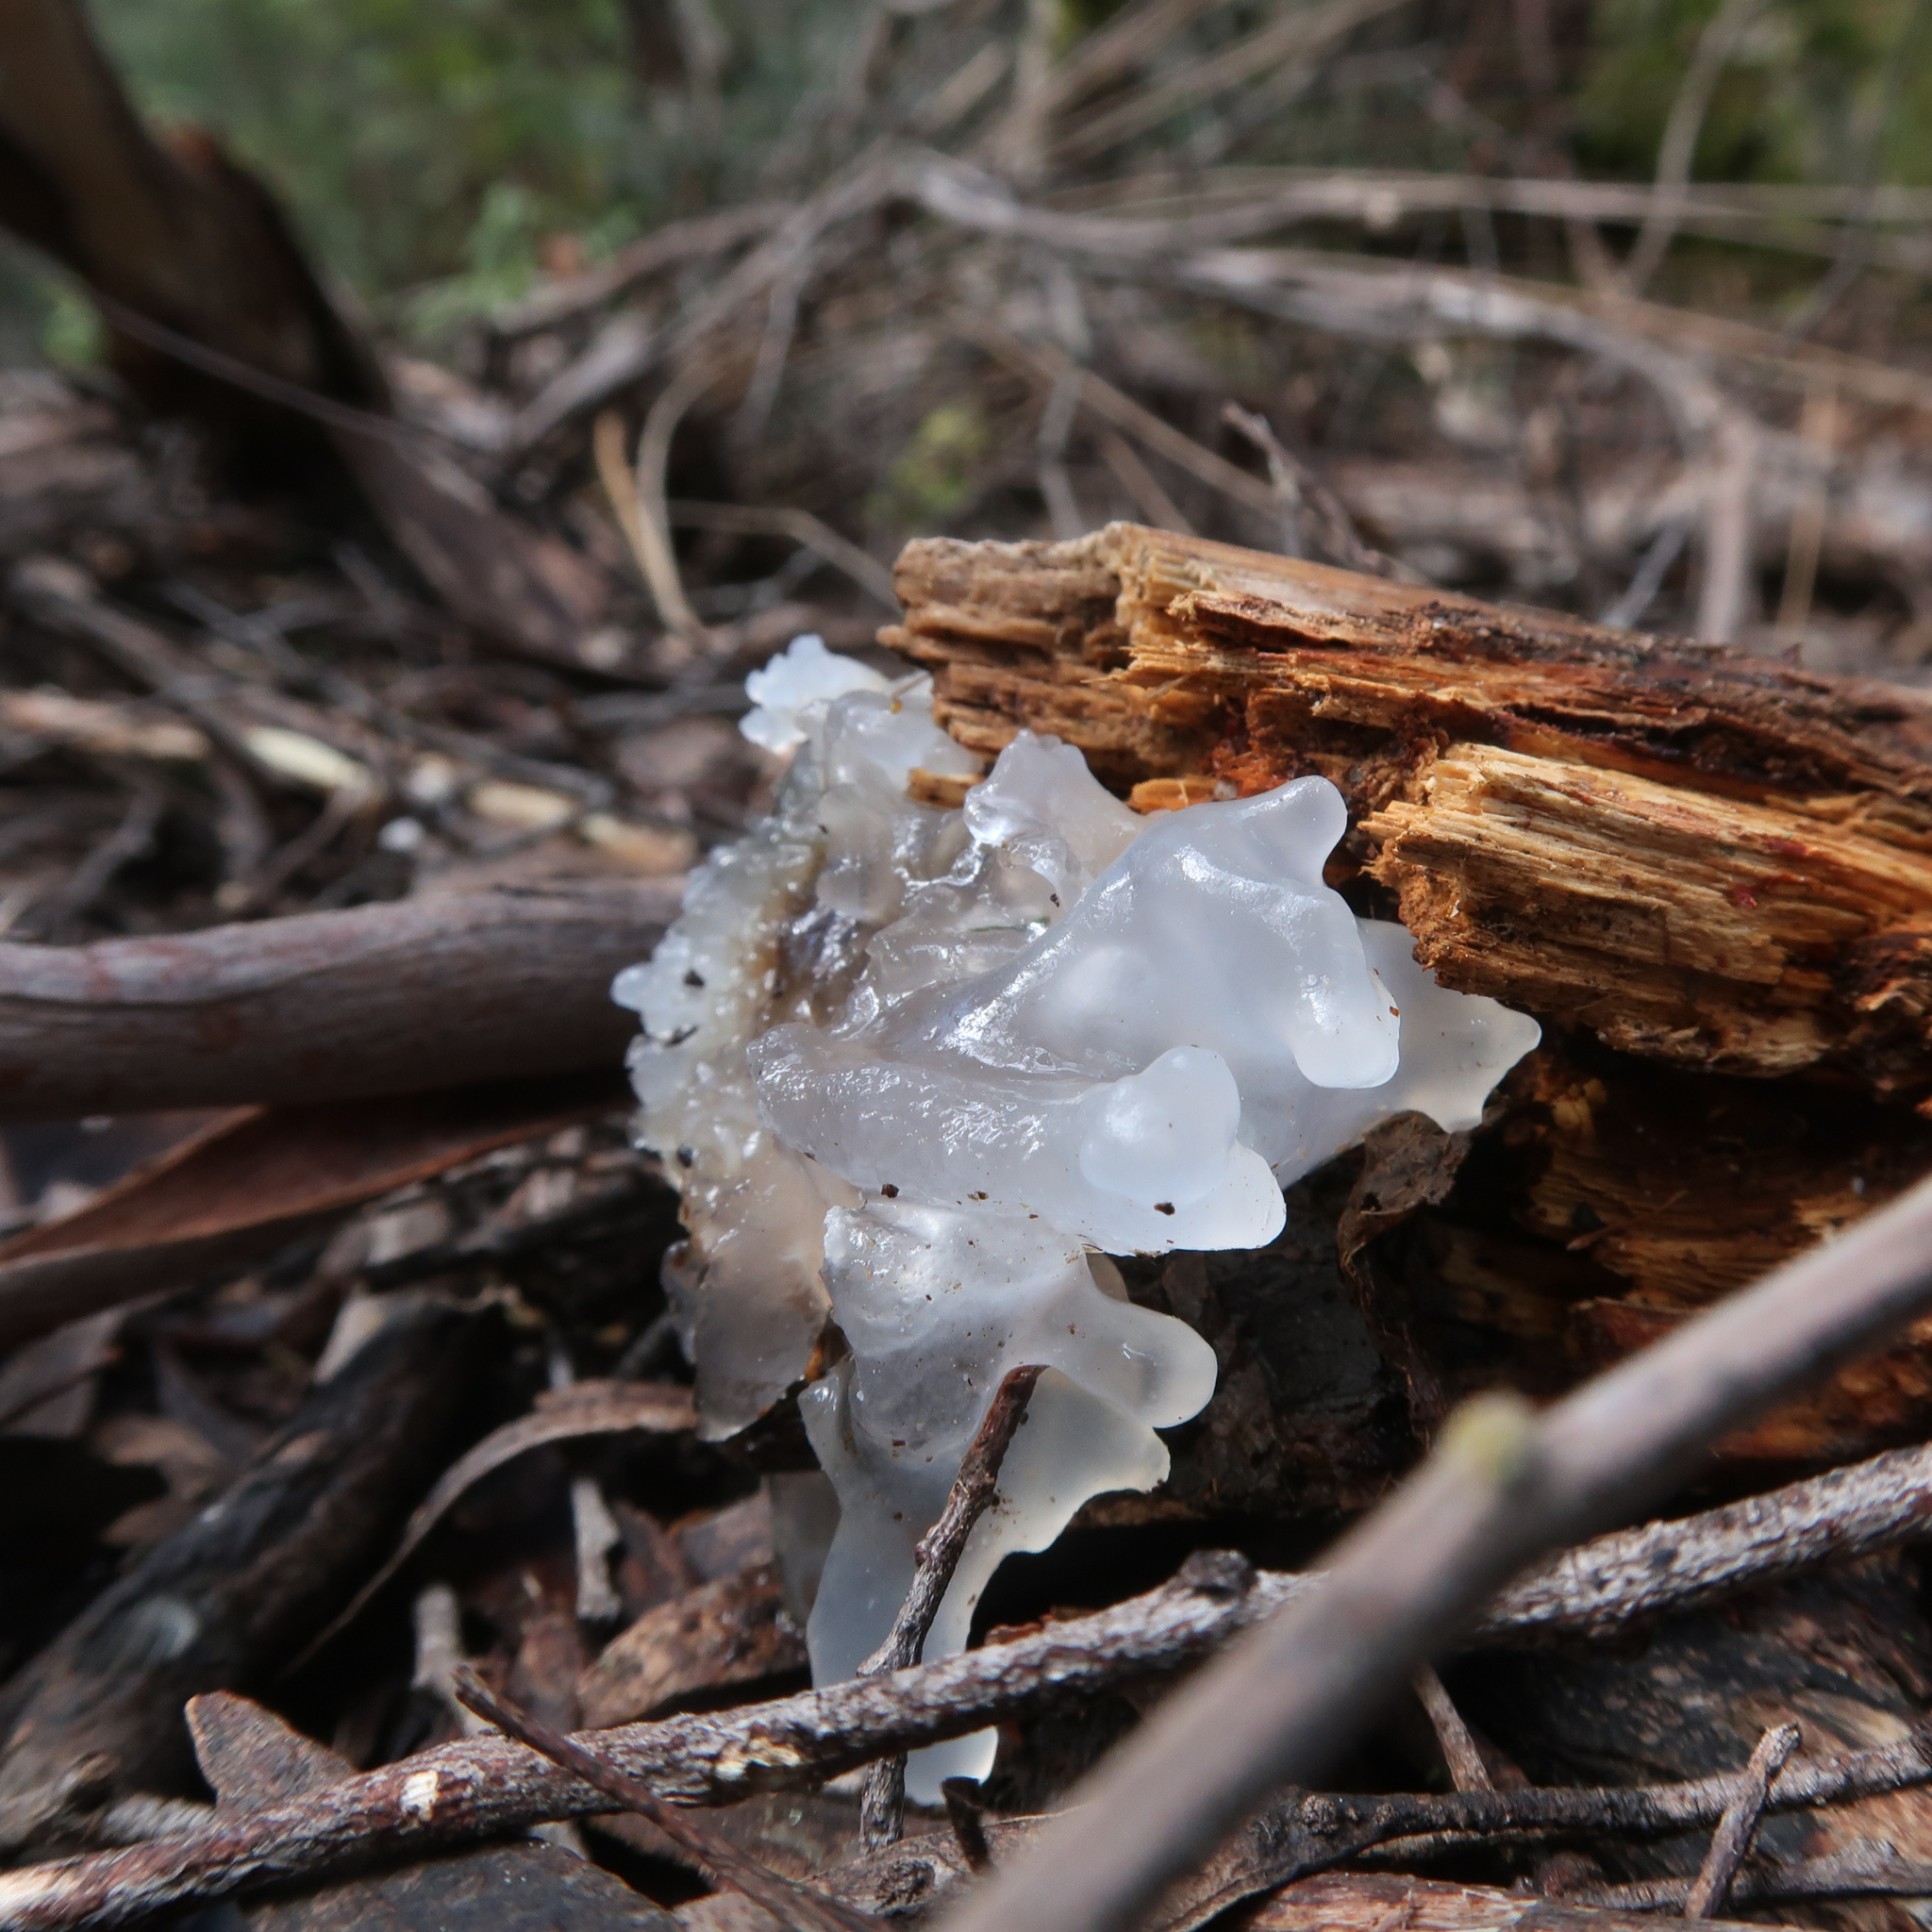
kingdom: Fungi
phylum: Basidiomycota
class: Tremellomycetes
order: Tremellales
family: Tremellaceae
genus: Tremella
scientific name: Tremella fuciformis
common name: Snow fungus
